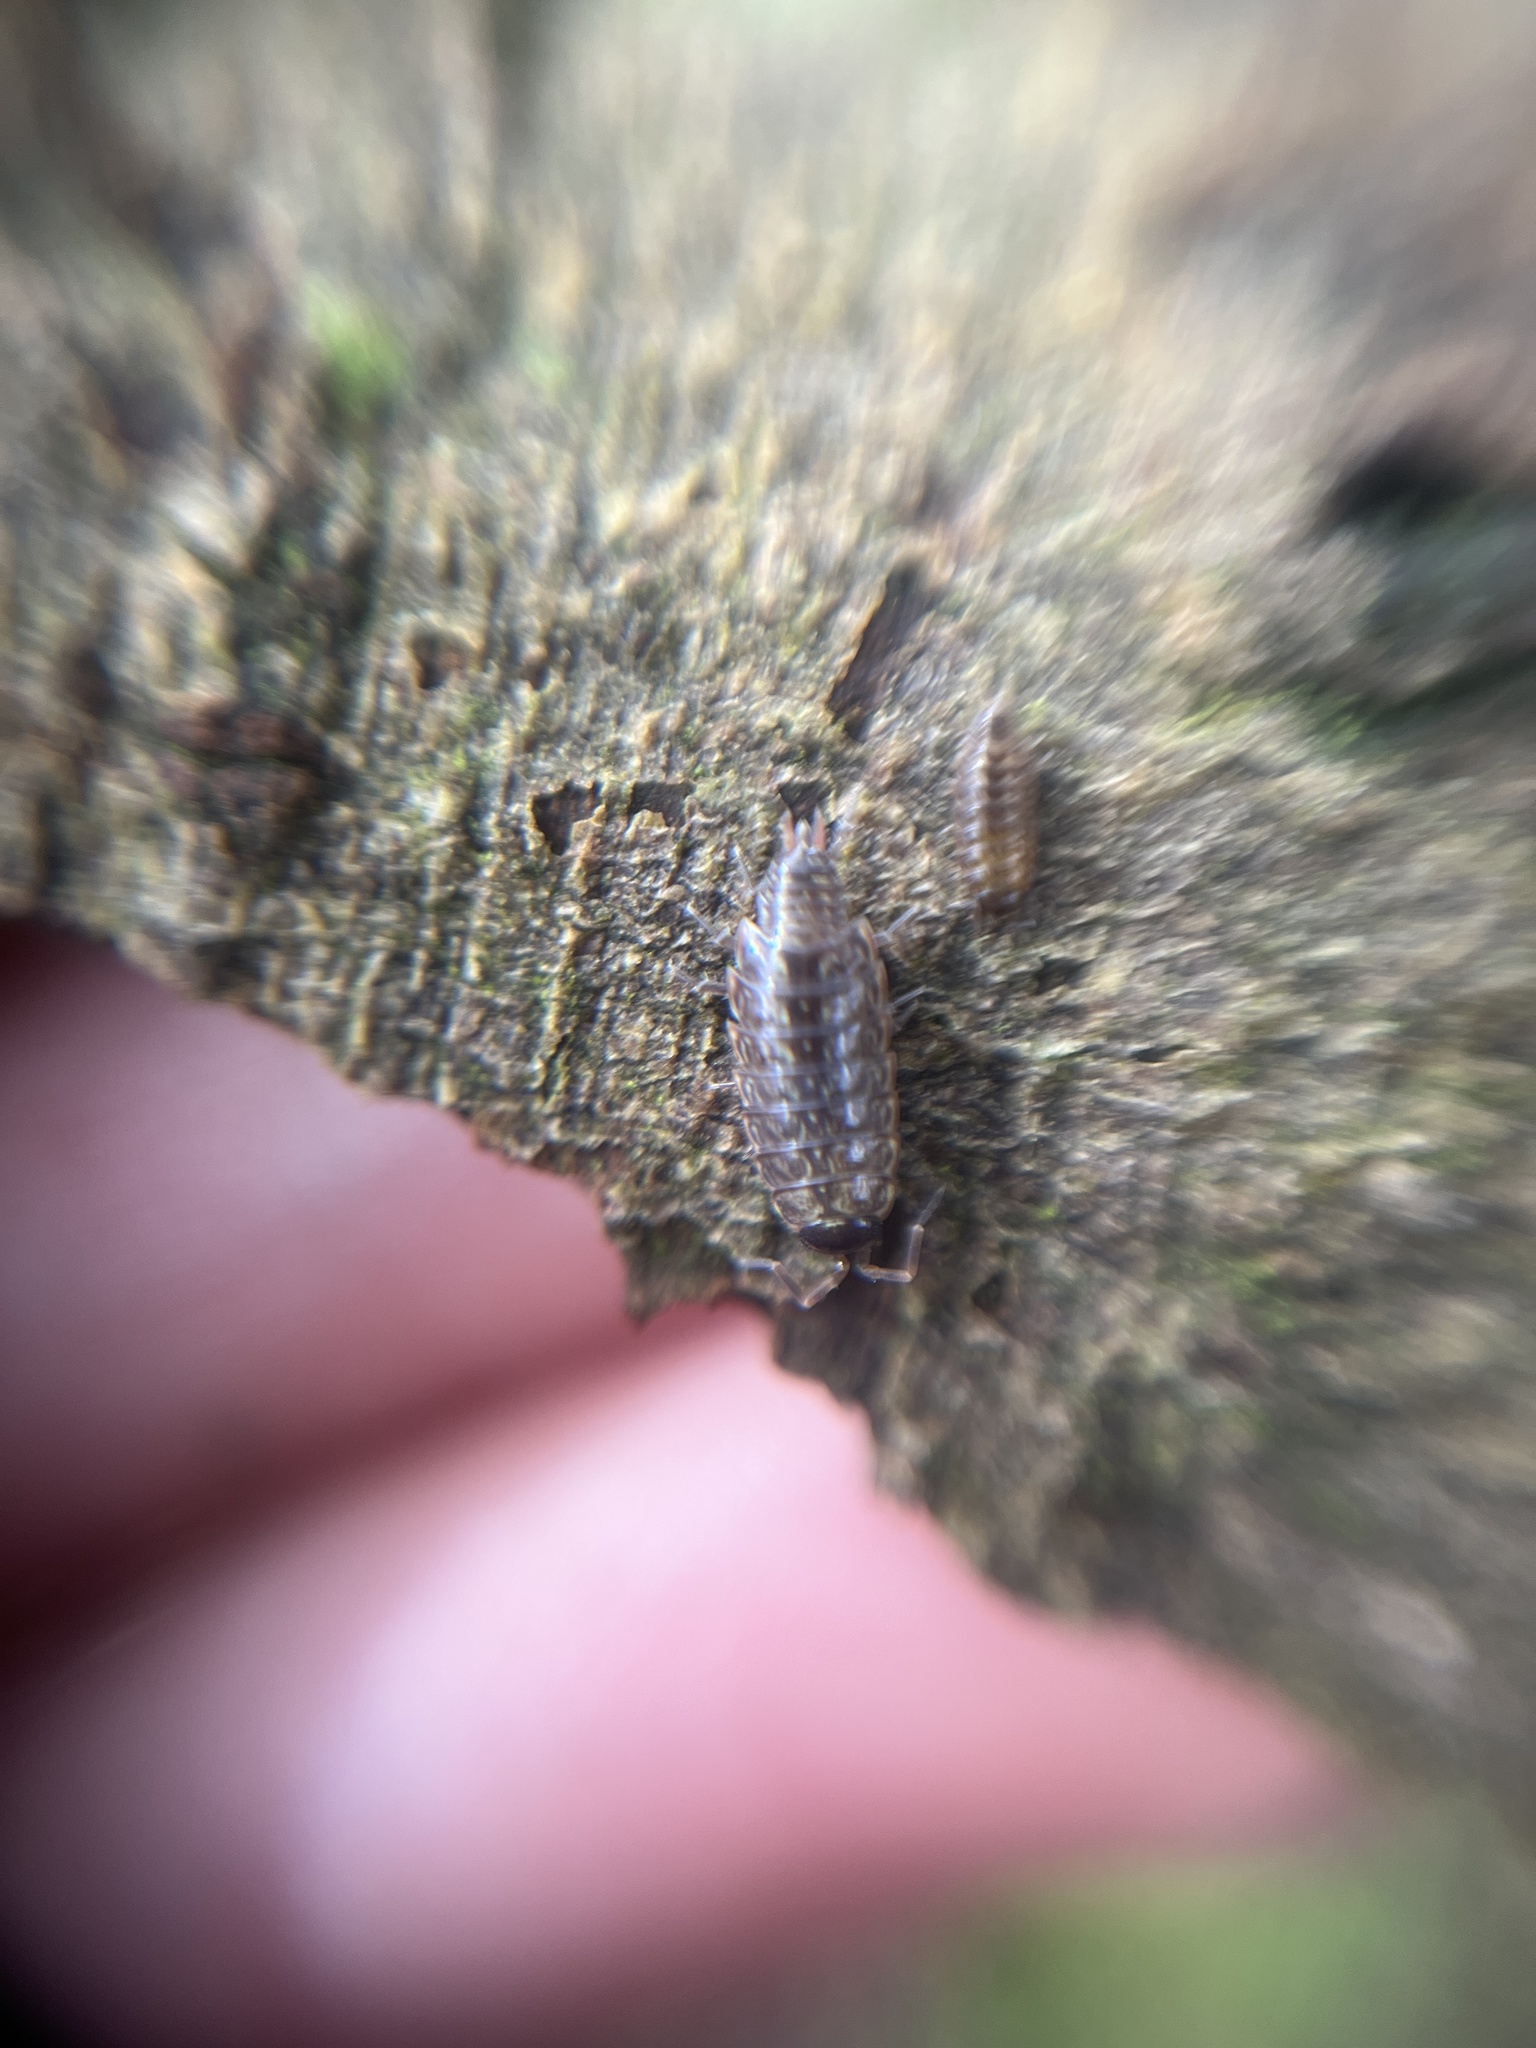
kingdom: Animalia
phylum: Arthropoda
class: Malacostraca
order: Isopoda
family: Philosciidae
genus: Philoscia
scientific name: Philoscia muscorum
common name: Common striped woodlouse
